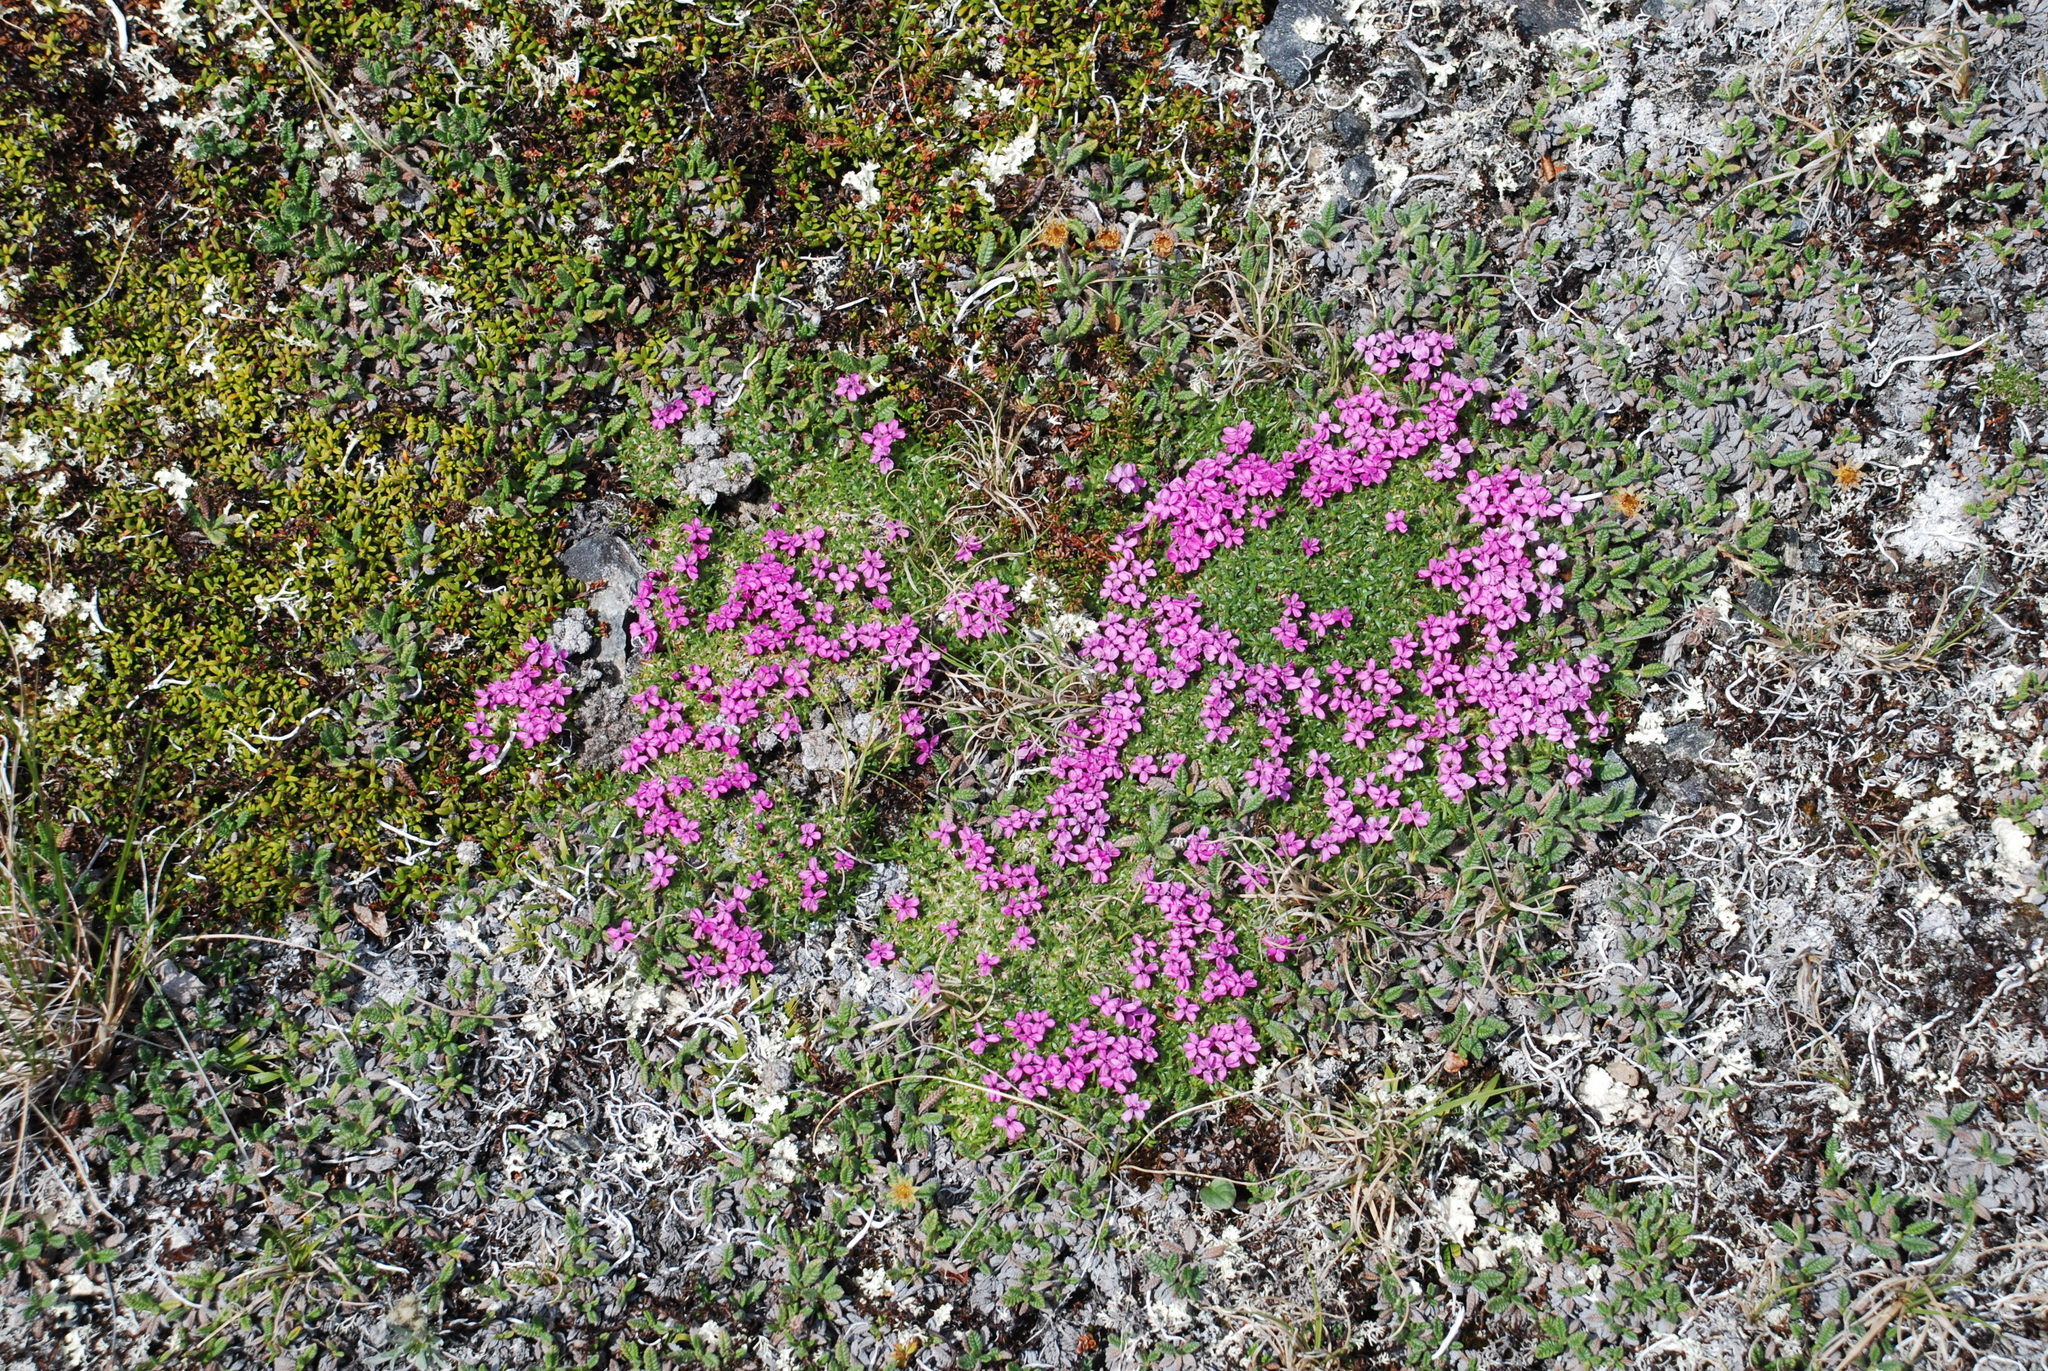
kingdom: Plantae
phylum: Tracheophyta
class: Magnoliopsida
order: Caryophyllales
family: Caryophyllaceae
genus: Silene
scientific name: Silene acaulis
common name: Moss campion
